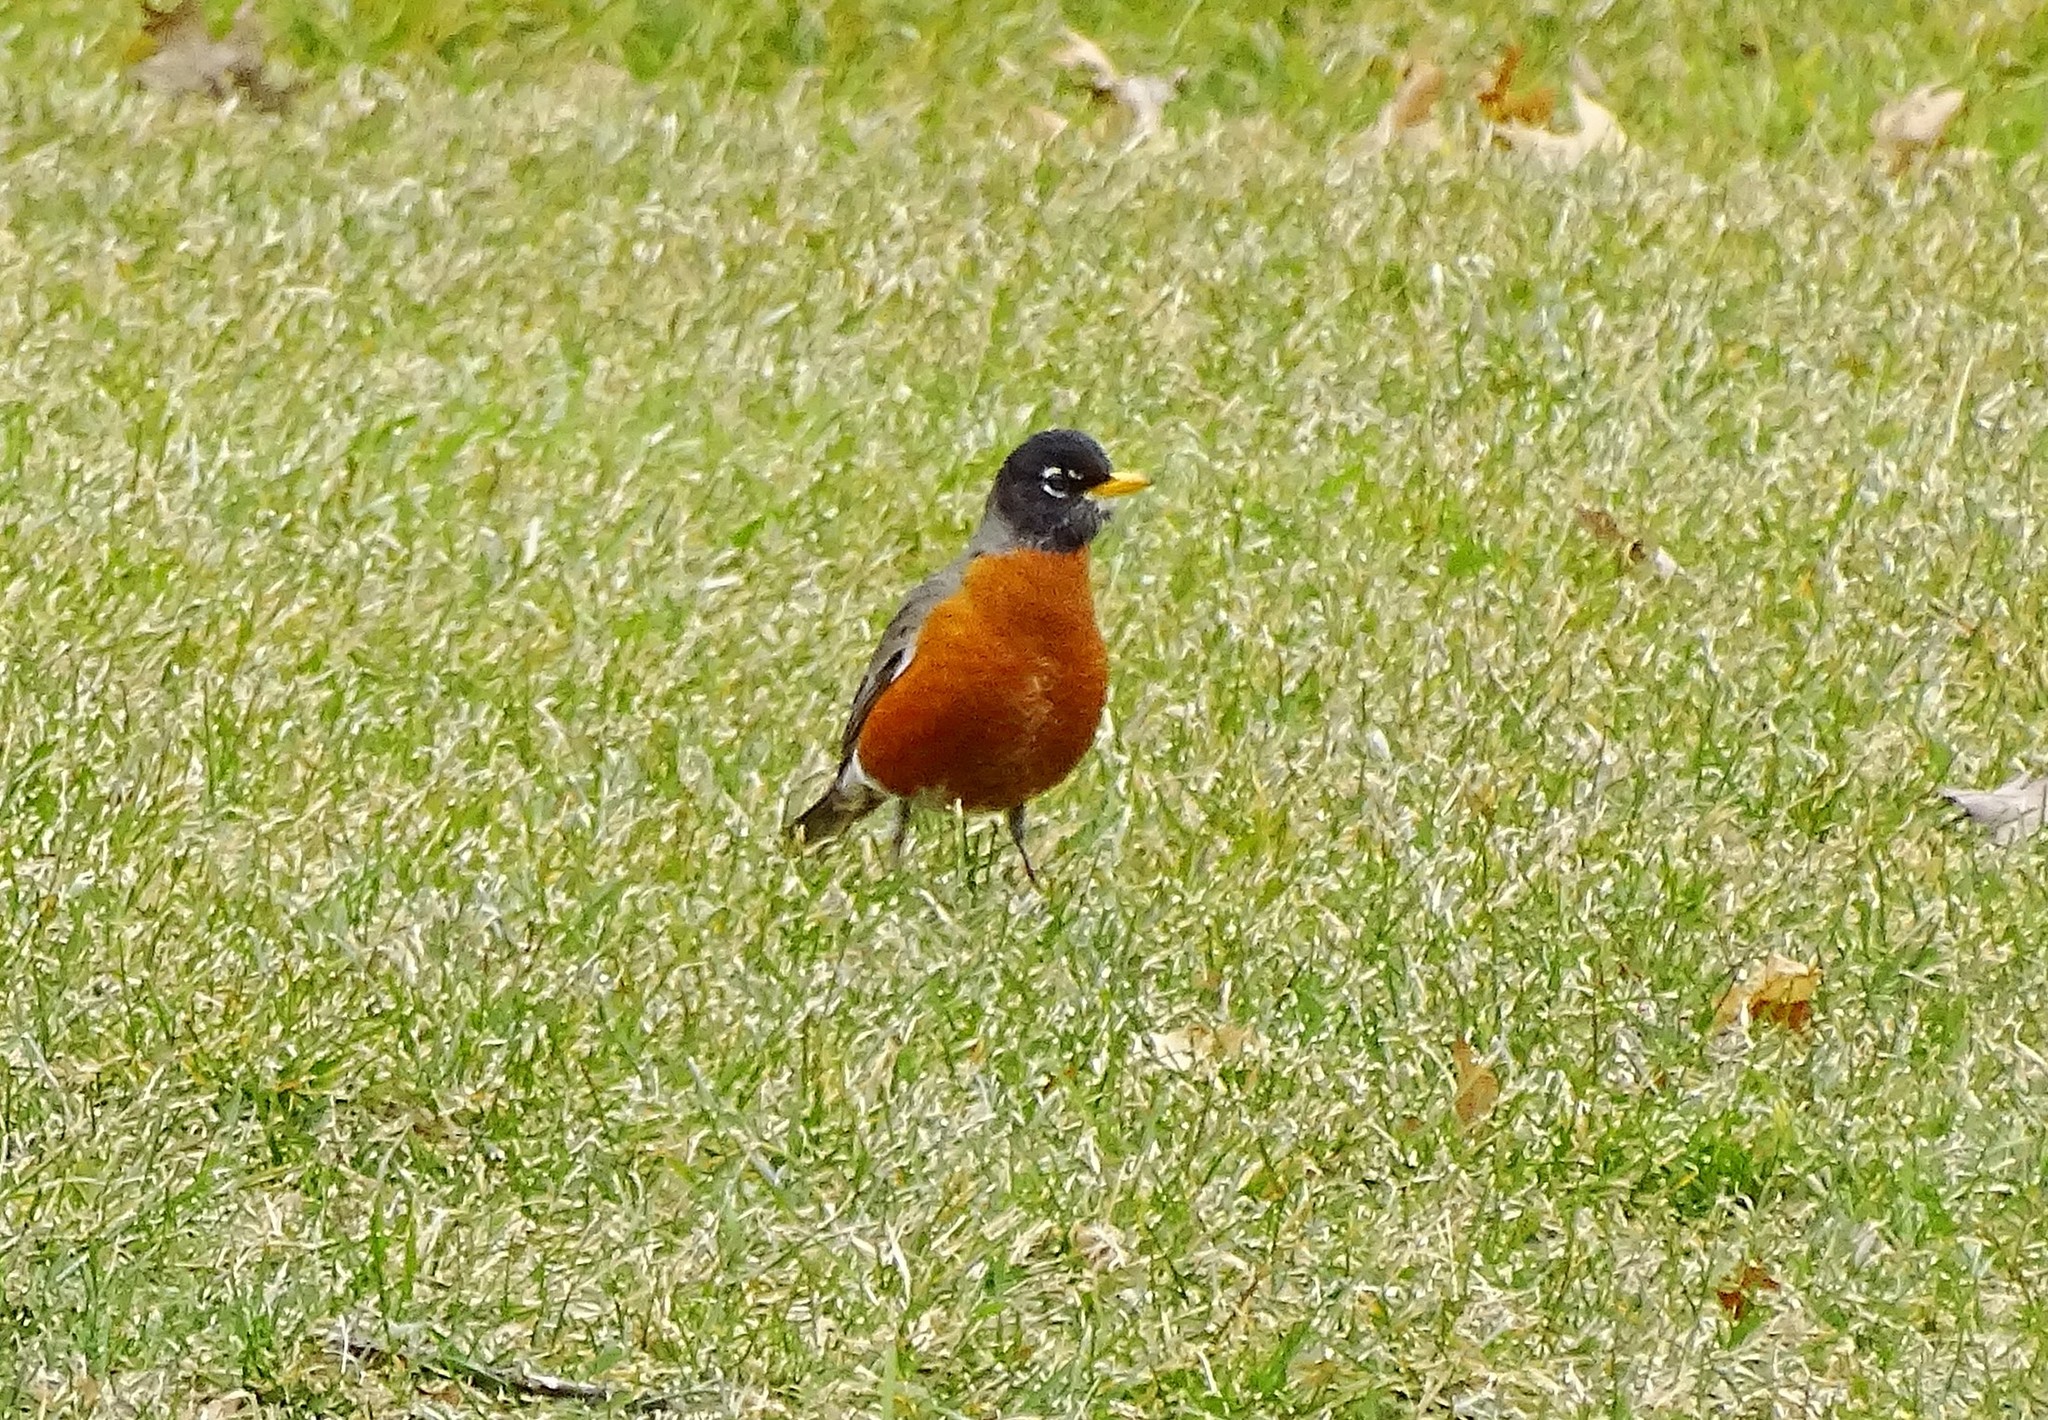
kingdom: Animalia
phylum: Chordata
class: Aves
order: Passeriformes
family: Turdidae
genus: Turdus
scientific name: Turdus migratorius
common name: American robin
